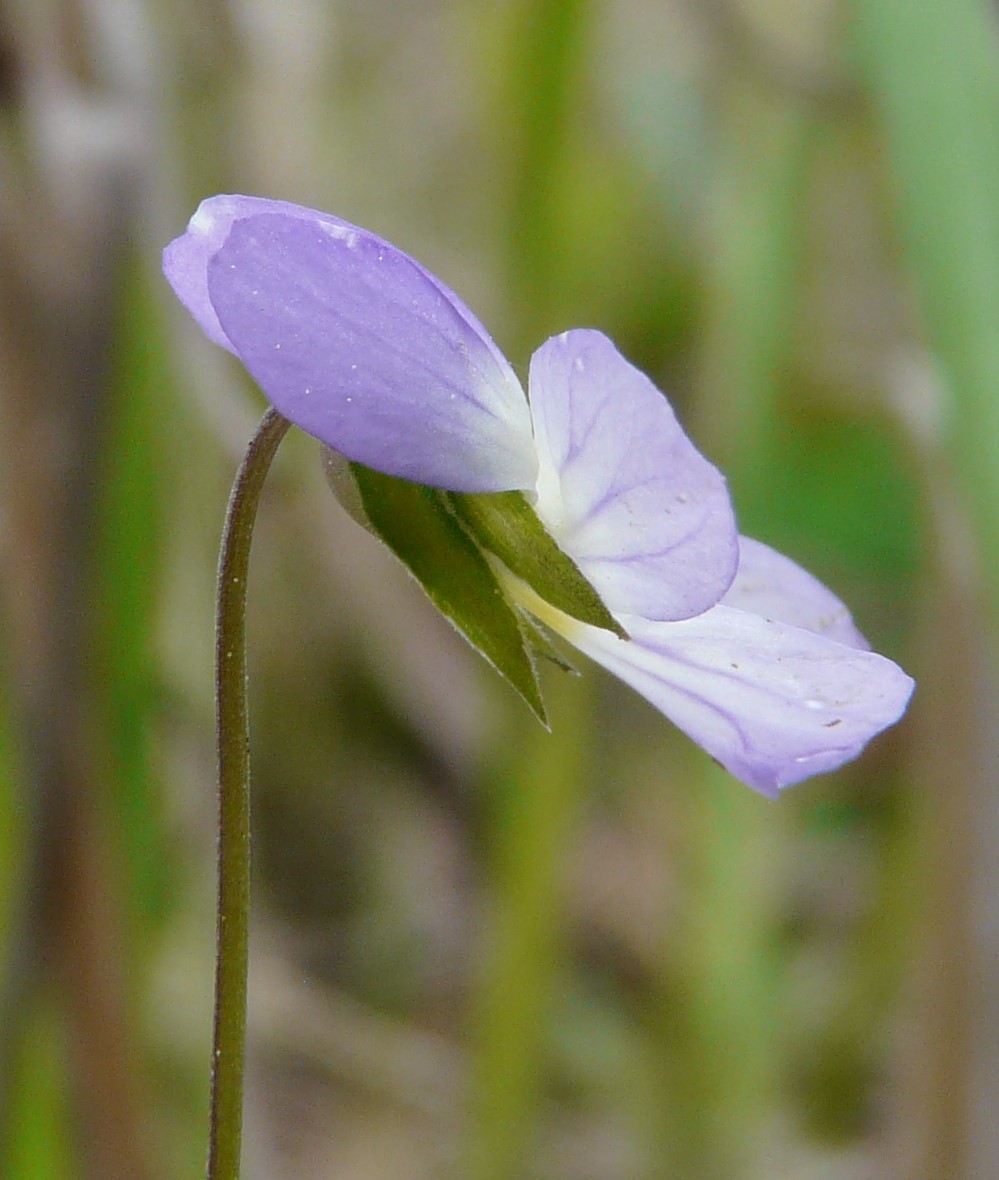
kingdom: Plantae
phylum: Tracheophyta
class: Magnoliopsida
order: Malpighiales
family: Violaceae
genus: Viola
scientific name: Viola rafinesquei
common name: American field pansy
